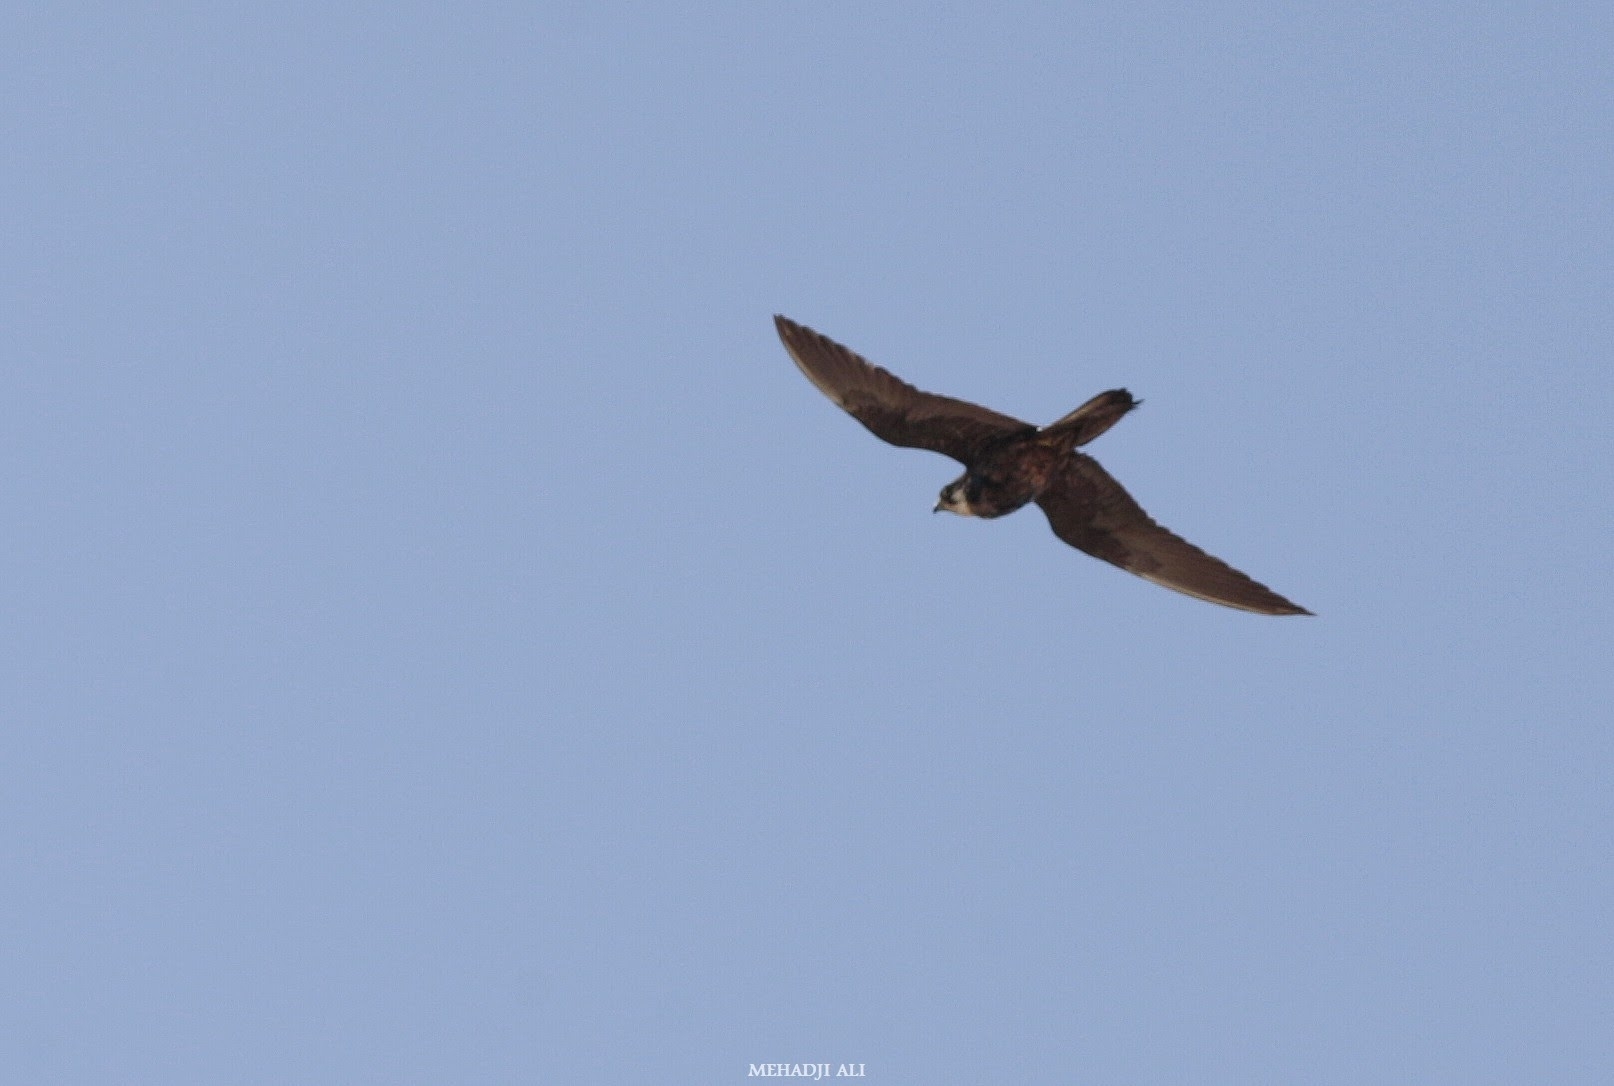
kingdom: Animalia
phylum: Chordata
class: Aves
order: Falconiformes
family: Falconidae
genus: Falco
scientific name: Falco eleonorae
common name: Eleonora's falcon
